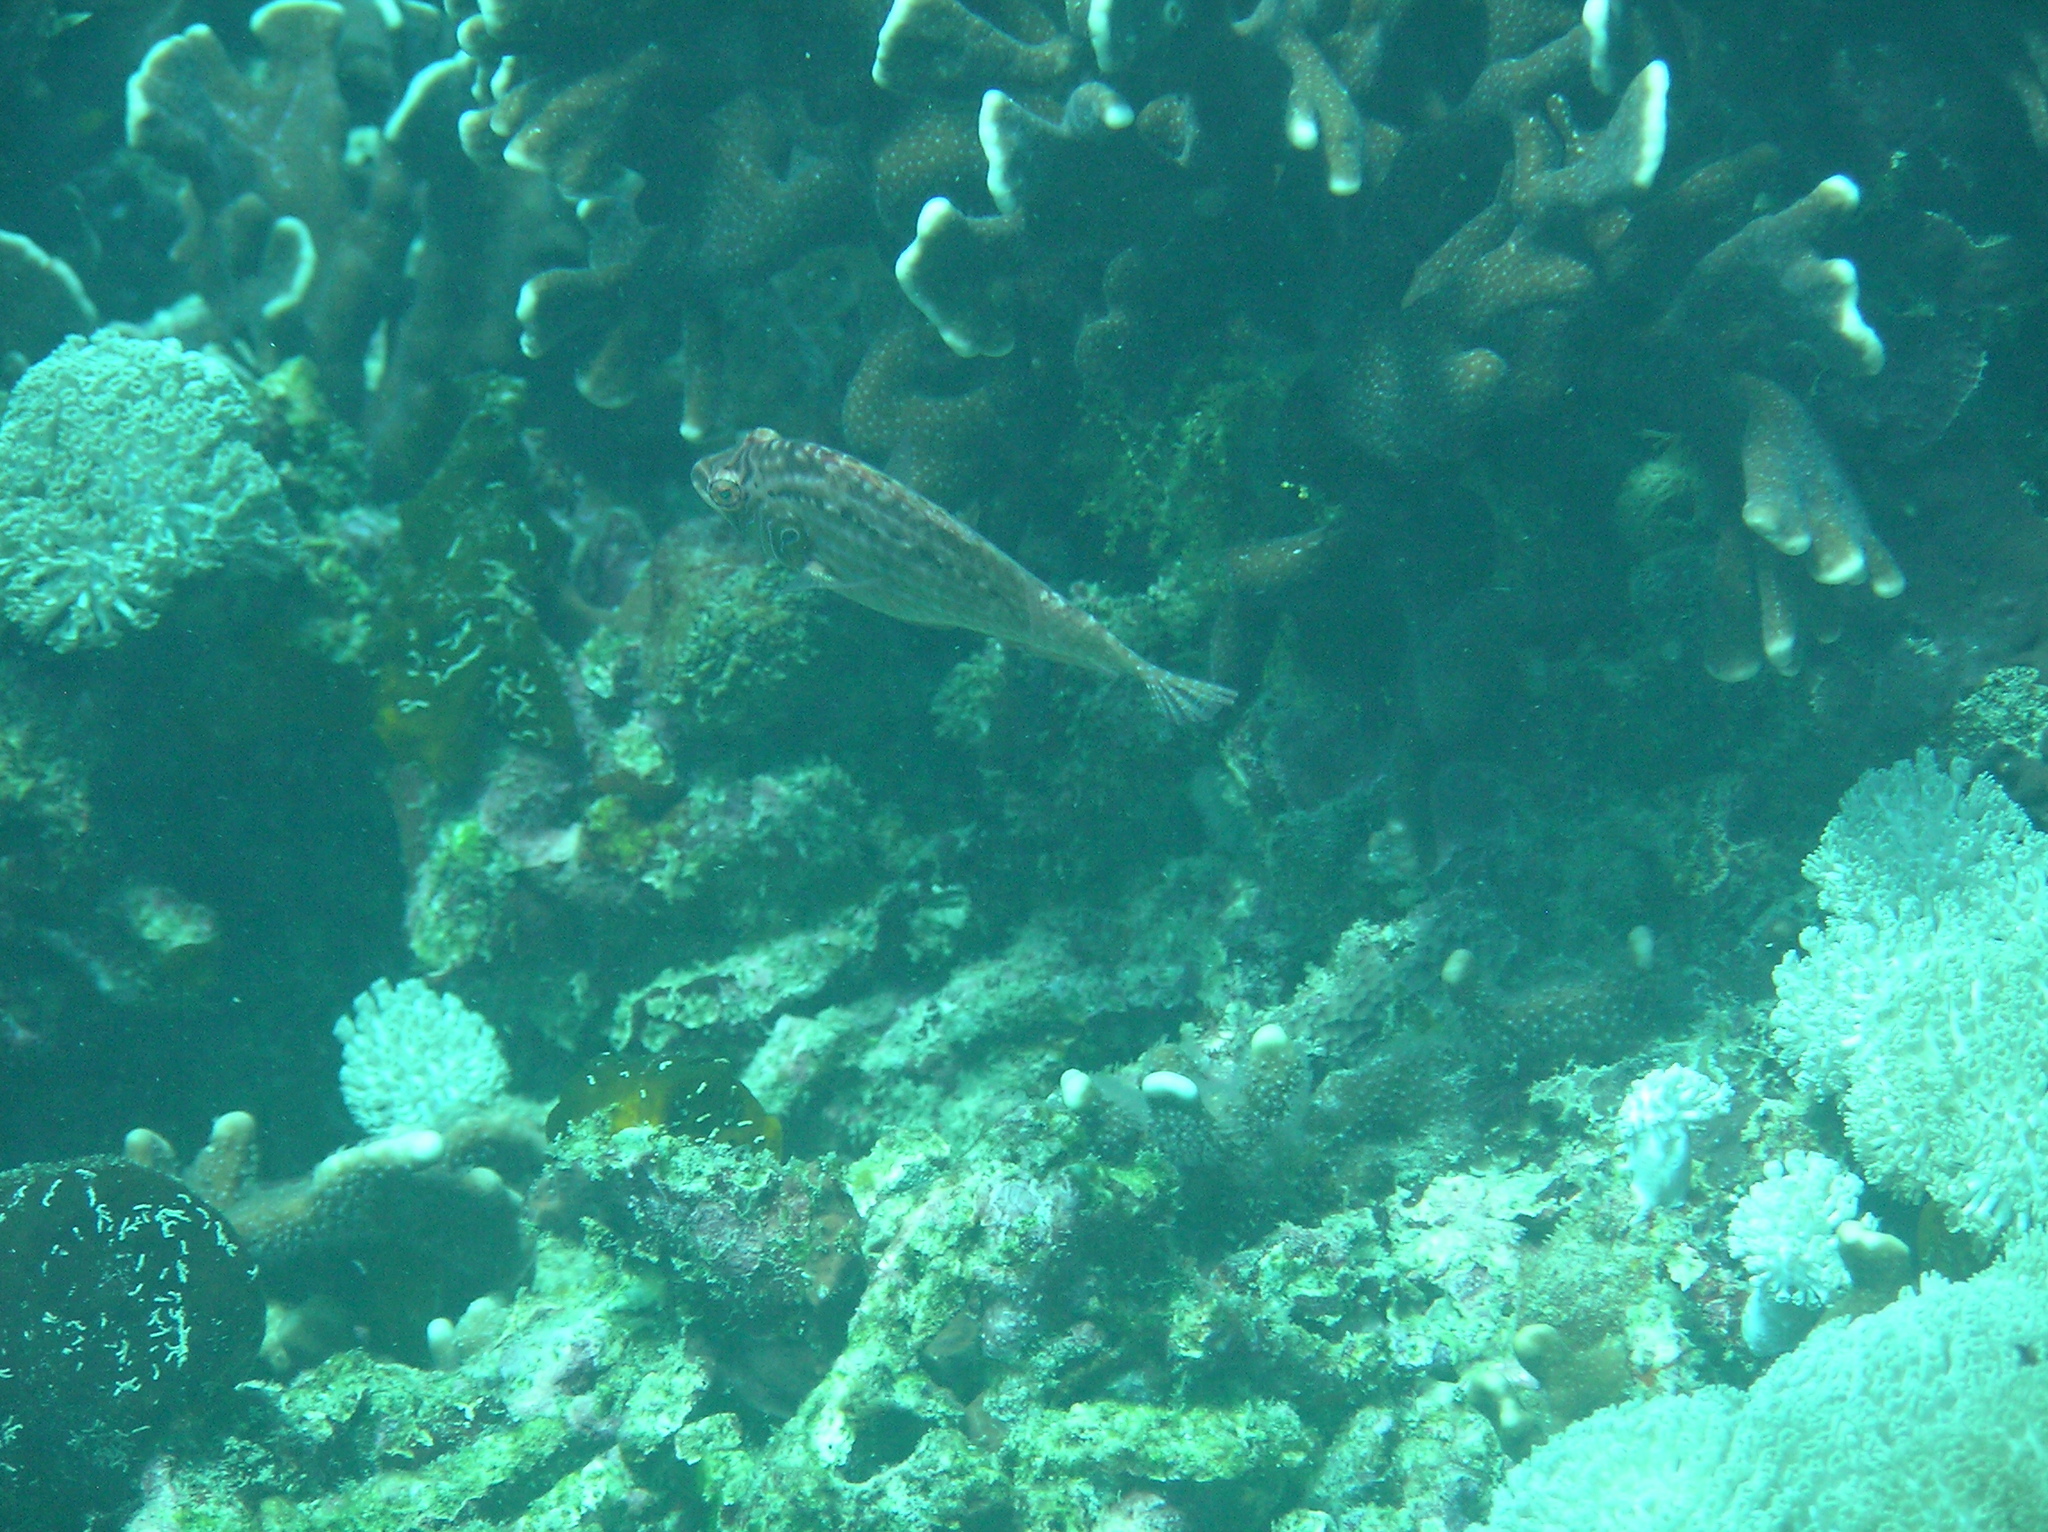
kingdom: Animalia
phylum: Chordata
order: Perciformes
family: Labridae
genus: Pteragogus
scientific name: Pteragogus enneacanthus
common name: Cockerel wrasse
